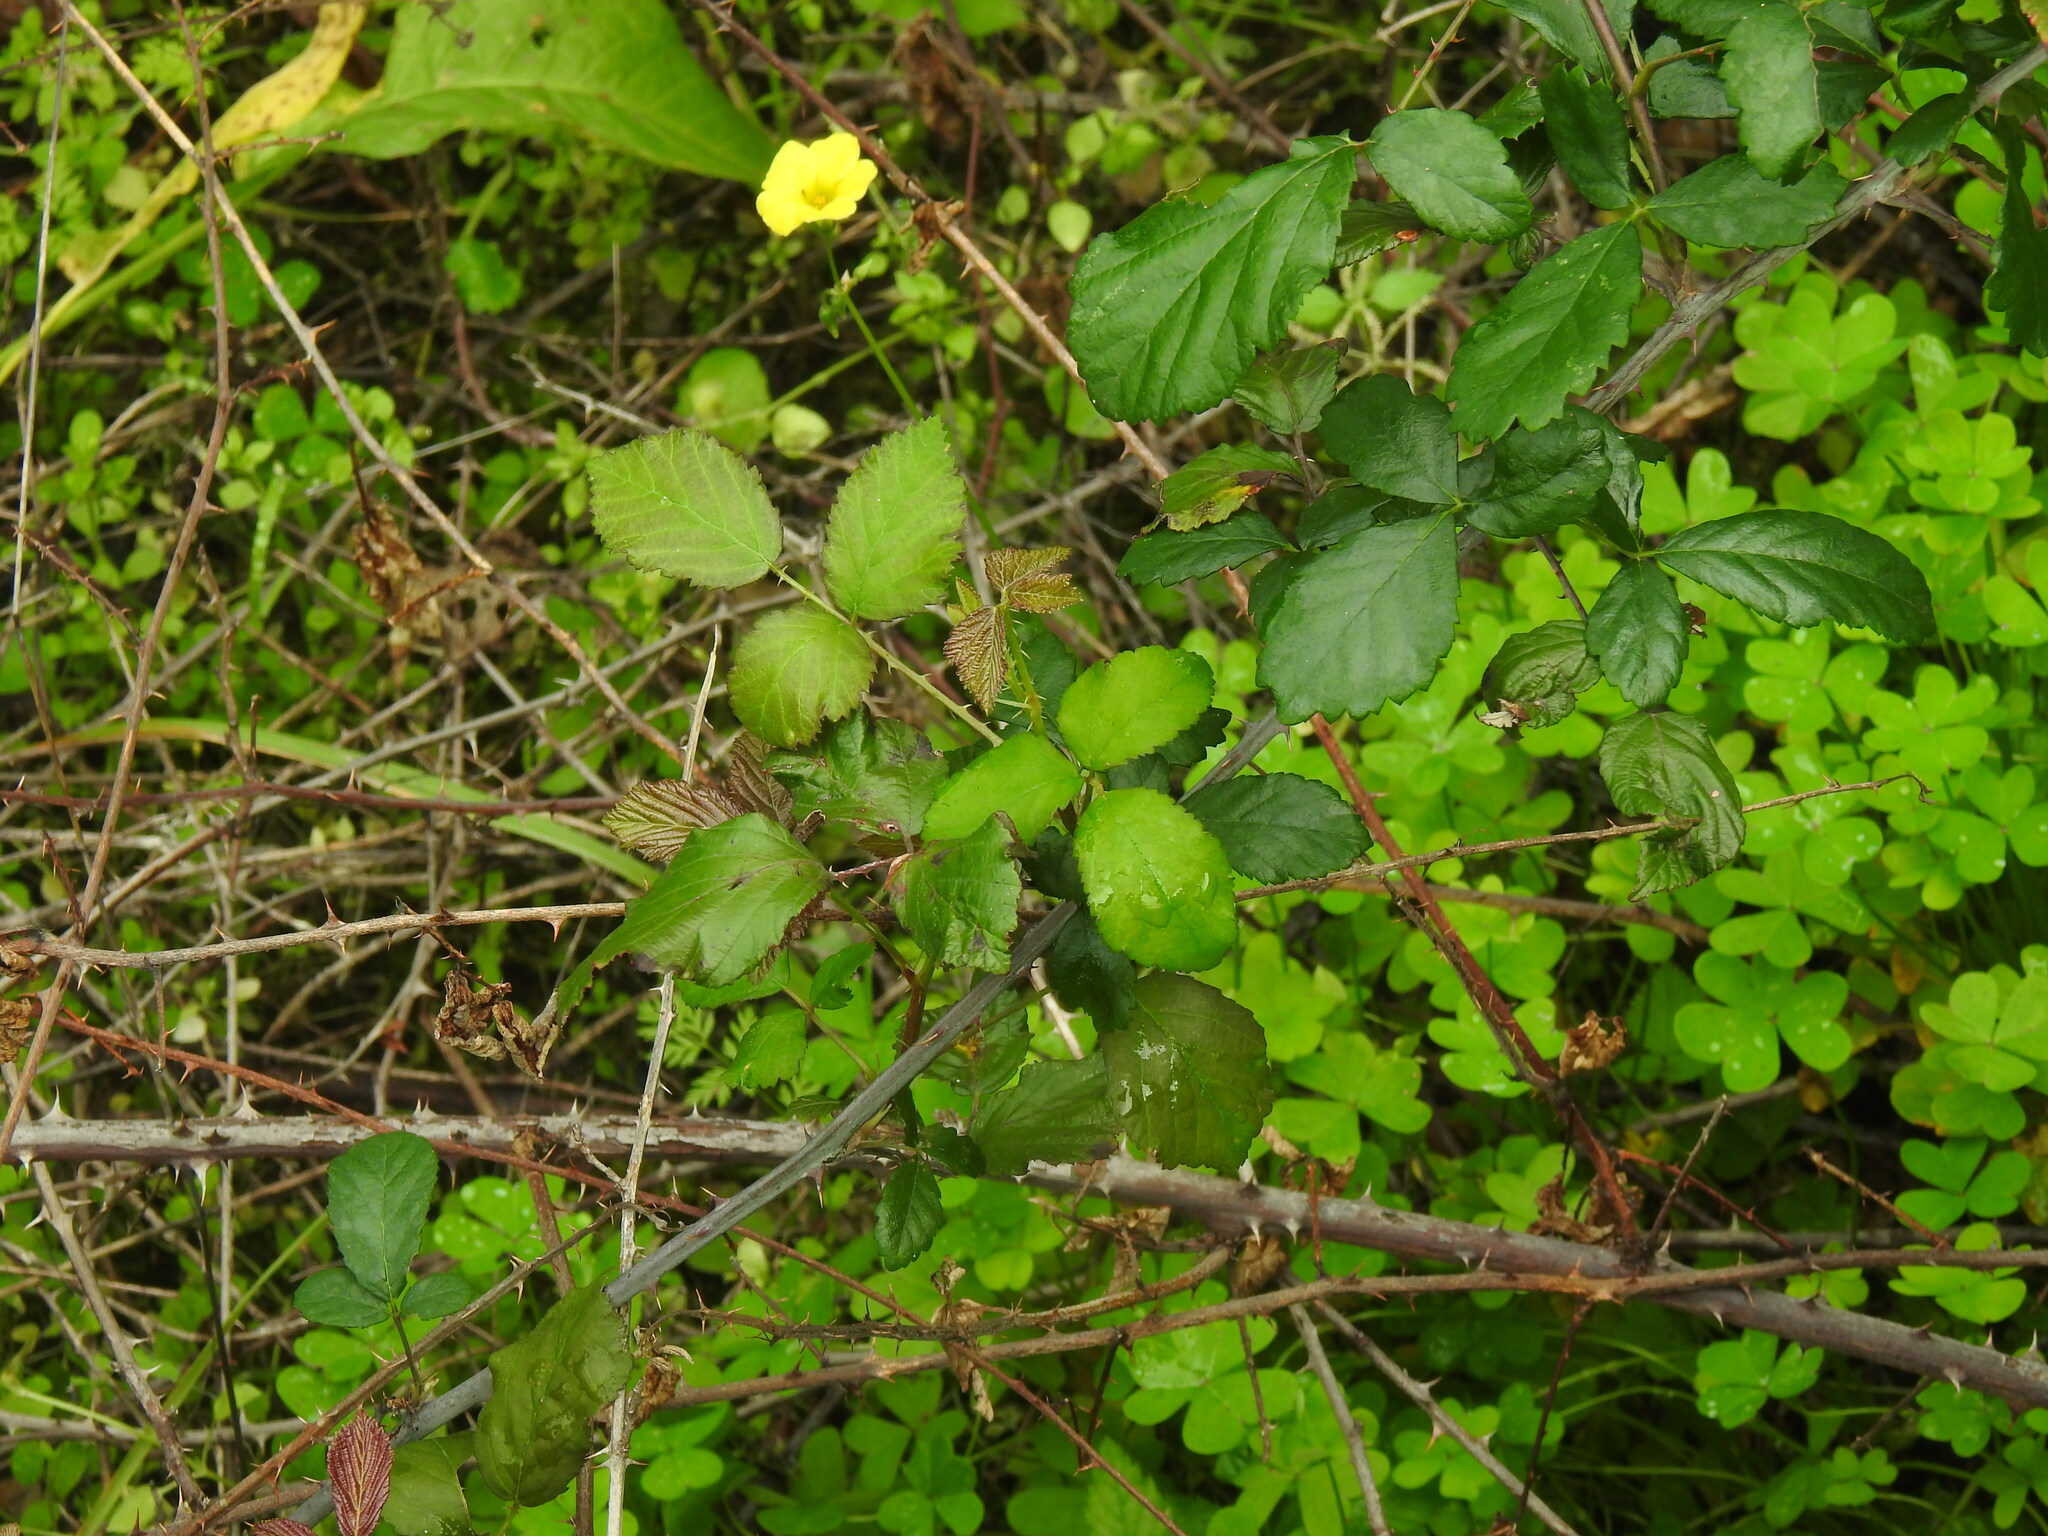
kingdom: Plantae
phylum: Tracheophyta
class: Magnoliopsida
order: Rosales
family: Rosaceae
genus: Rubus
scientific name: Rubus ulmifolius
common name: Elmleaf blackberry
